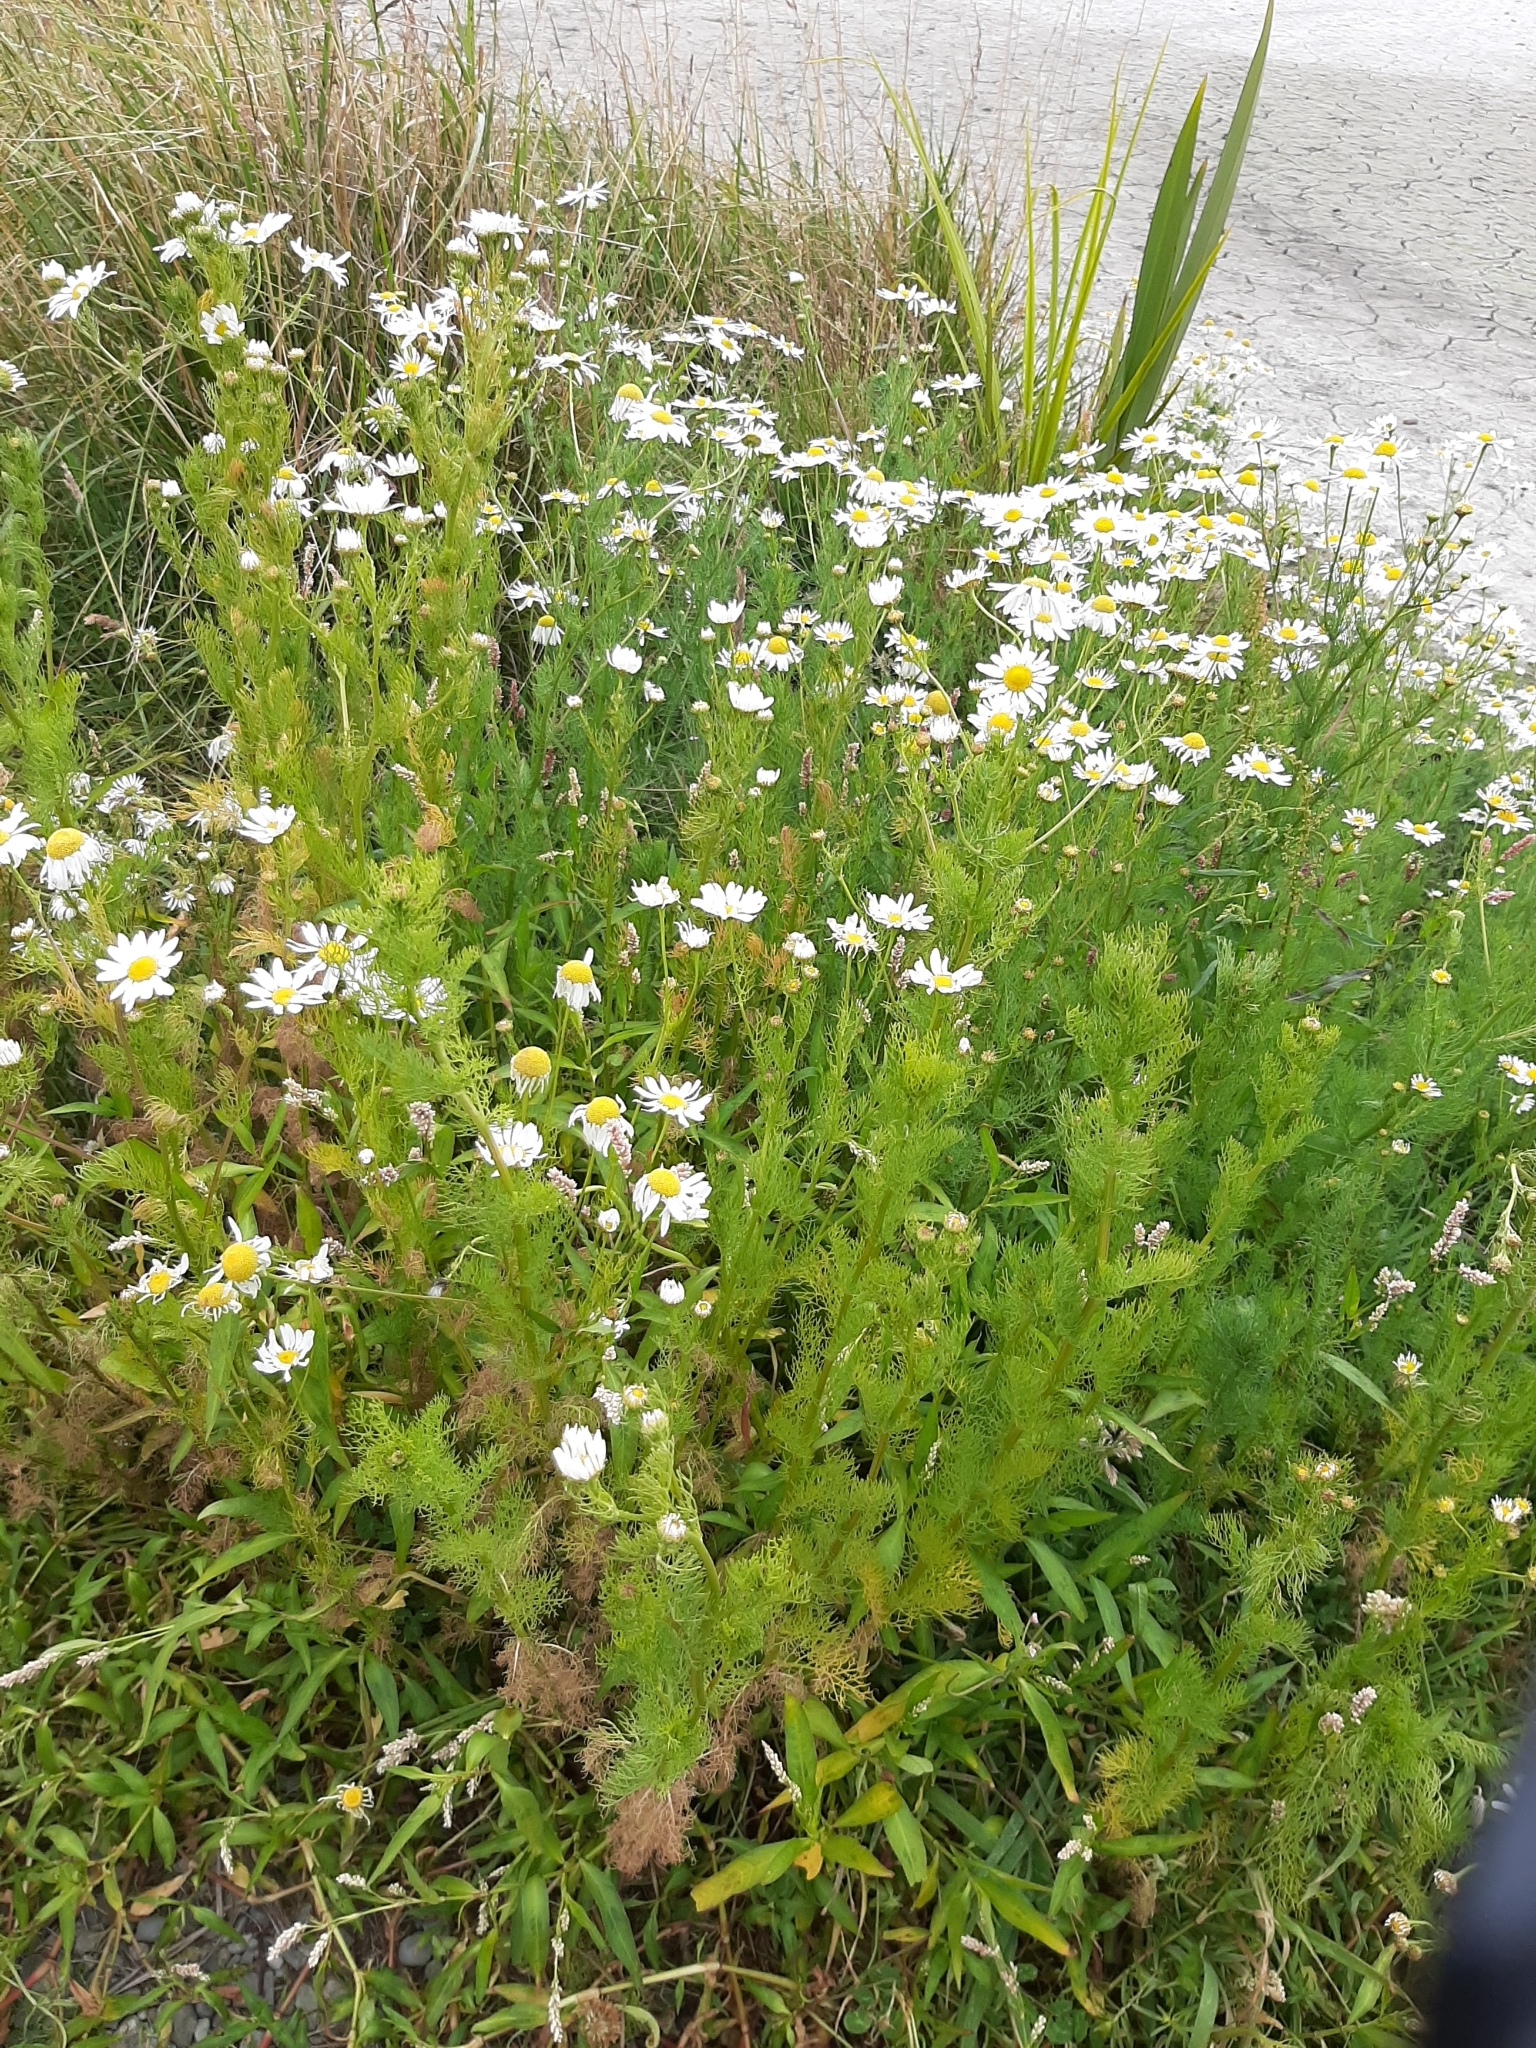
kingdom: Plantae
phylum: Tracheophyta
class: Magnoliopsida
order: Asterales
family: Asteraceae
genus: Tripleurospermum
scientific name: Tripleurospermum inodorum
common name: Scentless mayweed
